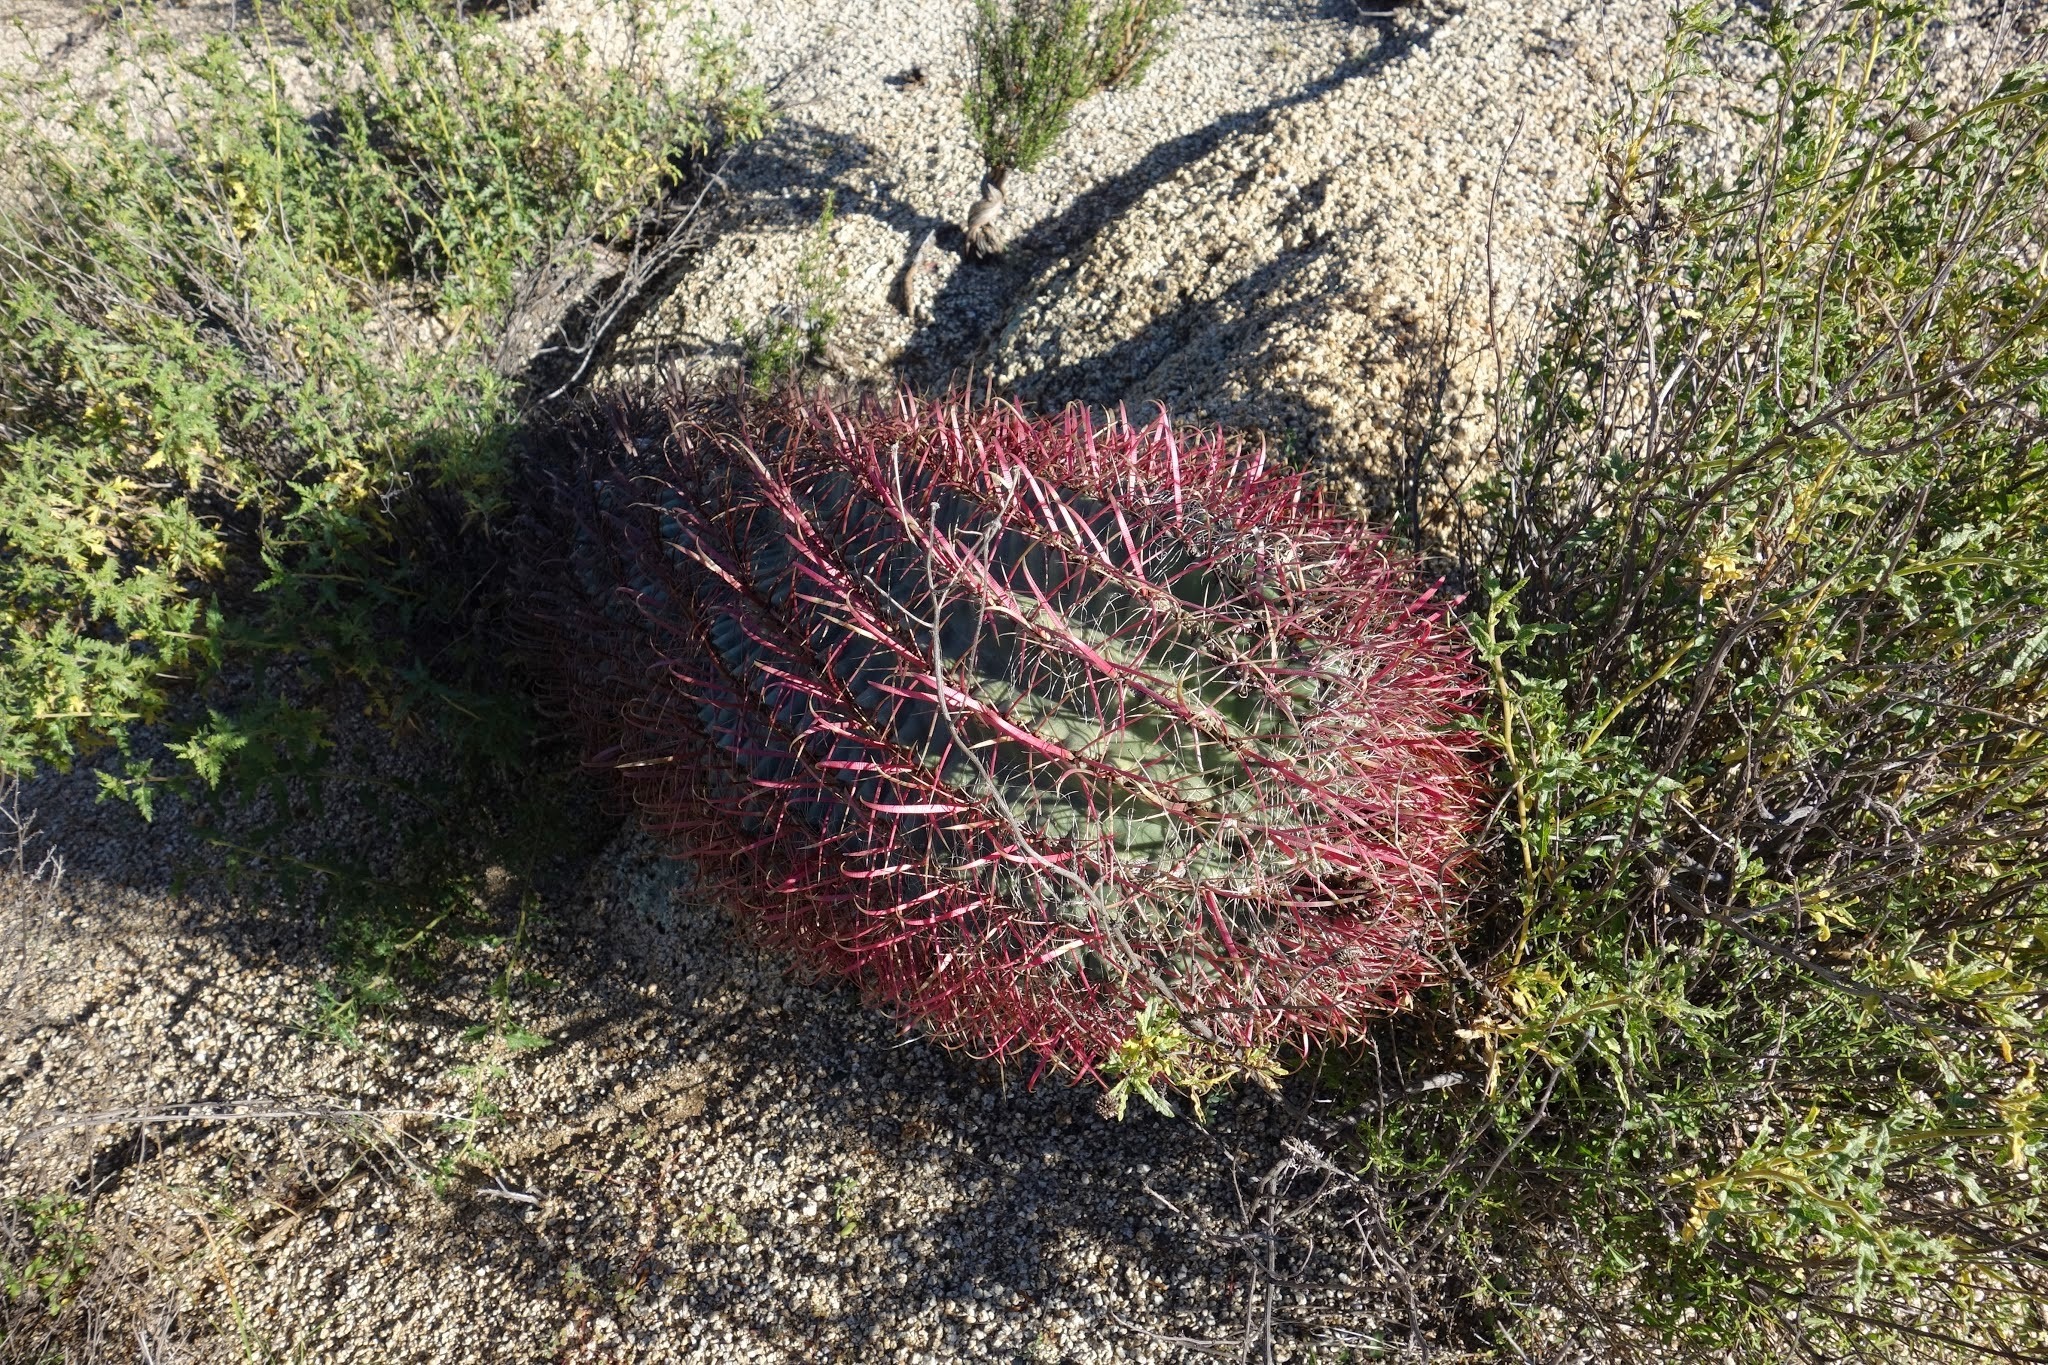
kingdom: Plantae
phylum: Tracheophyta
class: Magnoliopsida
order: Caryophyllales
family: Cactaceae
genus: Ferocactus
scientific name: Ferocactus cylindraceus
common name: California barrel cactus
